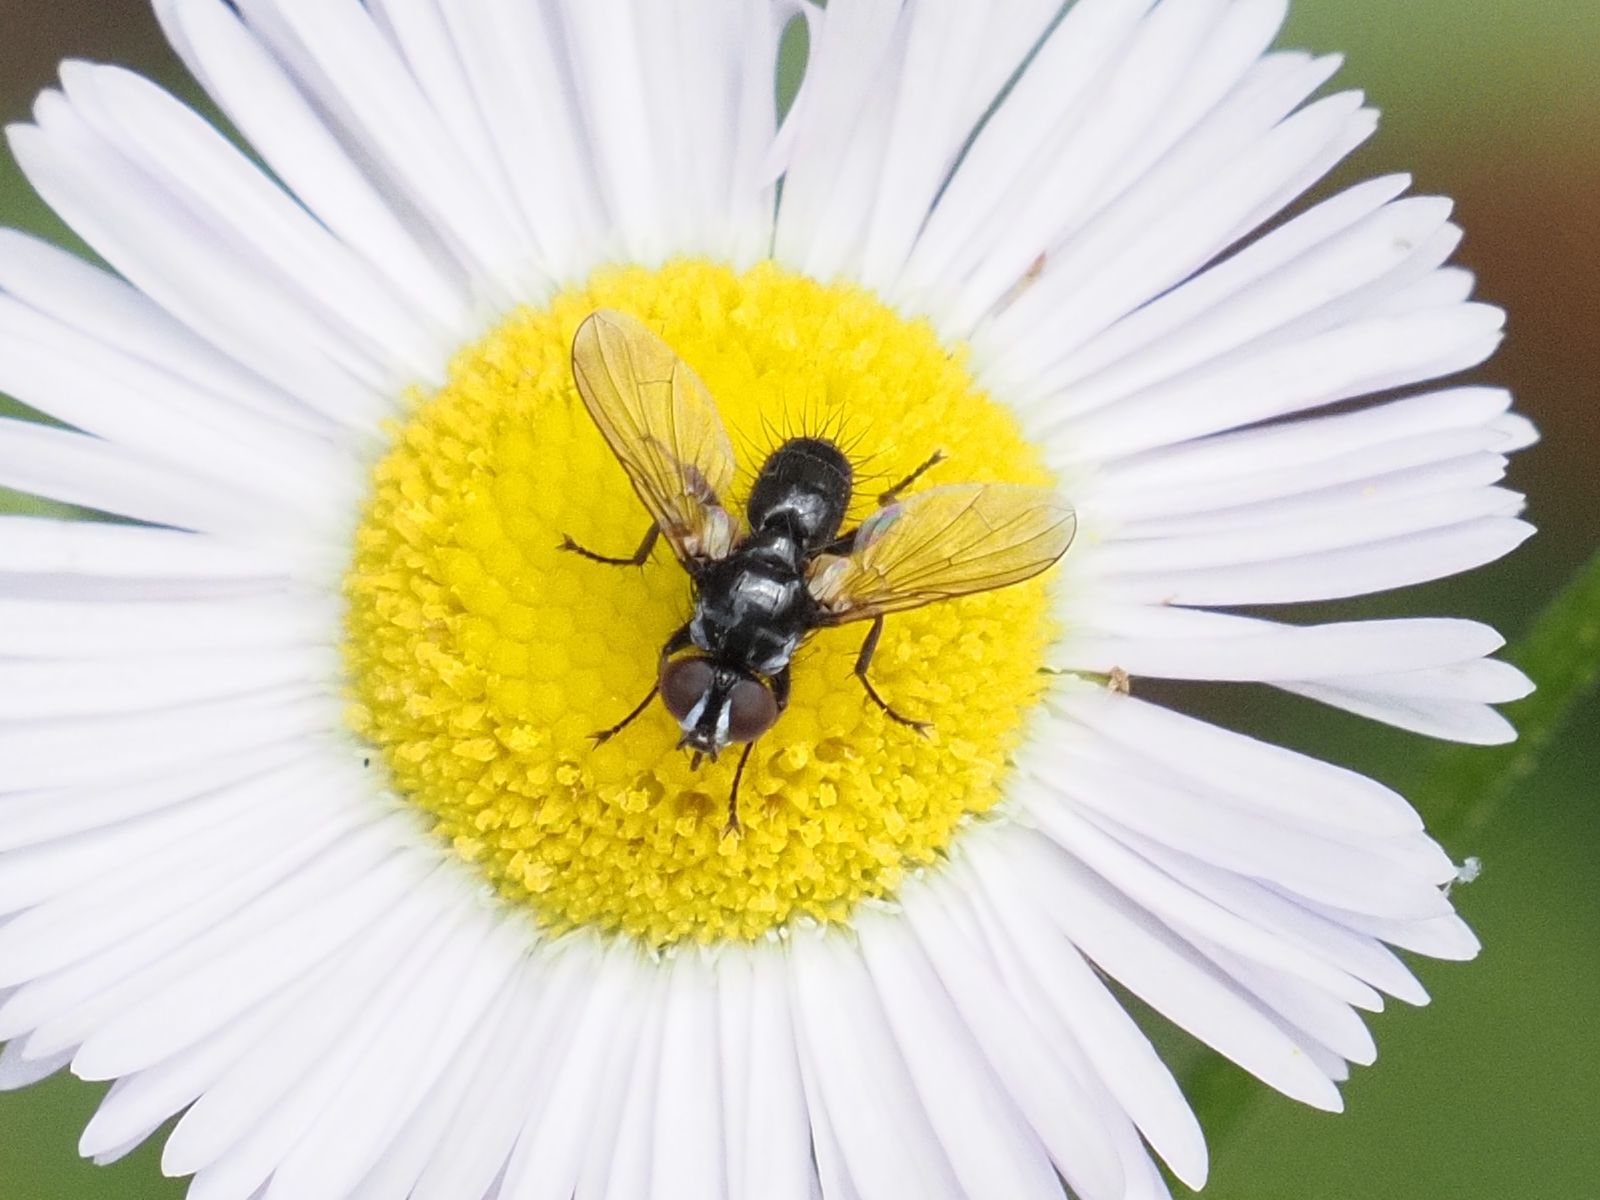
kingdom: Animalia
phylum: Arthropoda
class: Insecta
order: Diptera
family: Tachinidae
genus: Phania
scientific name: Phania funesta
